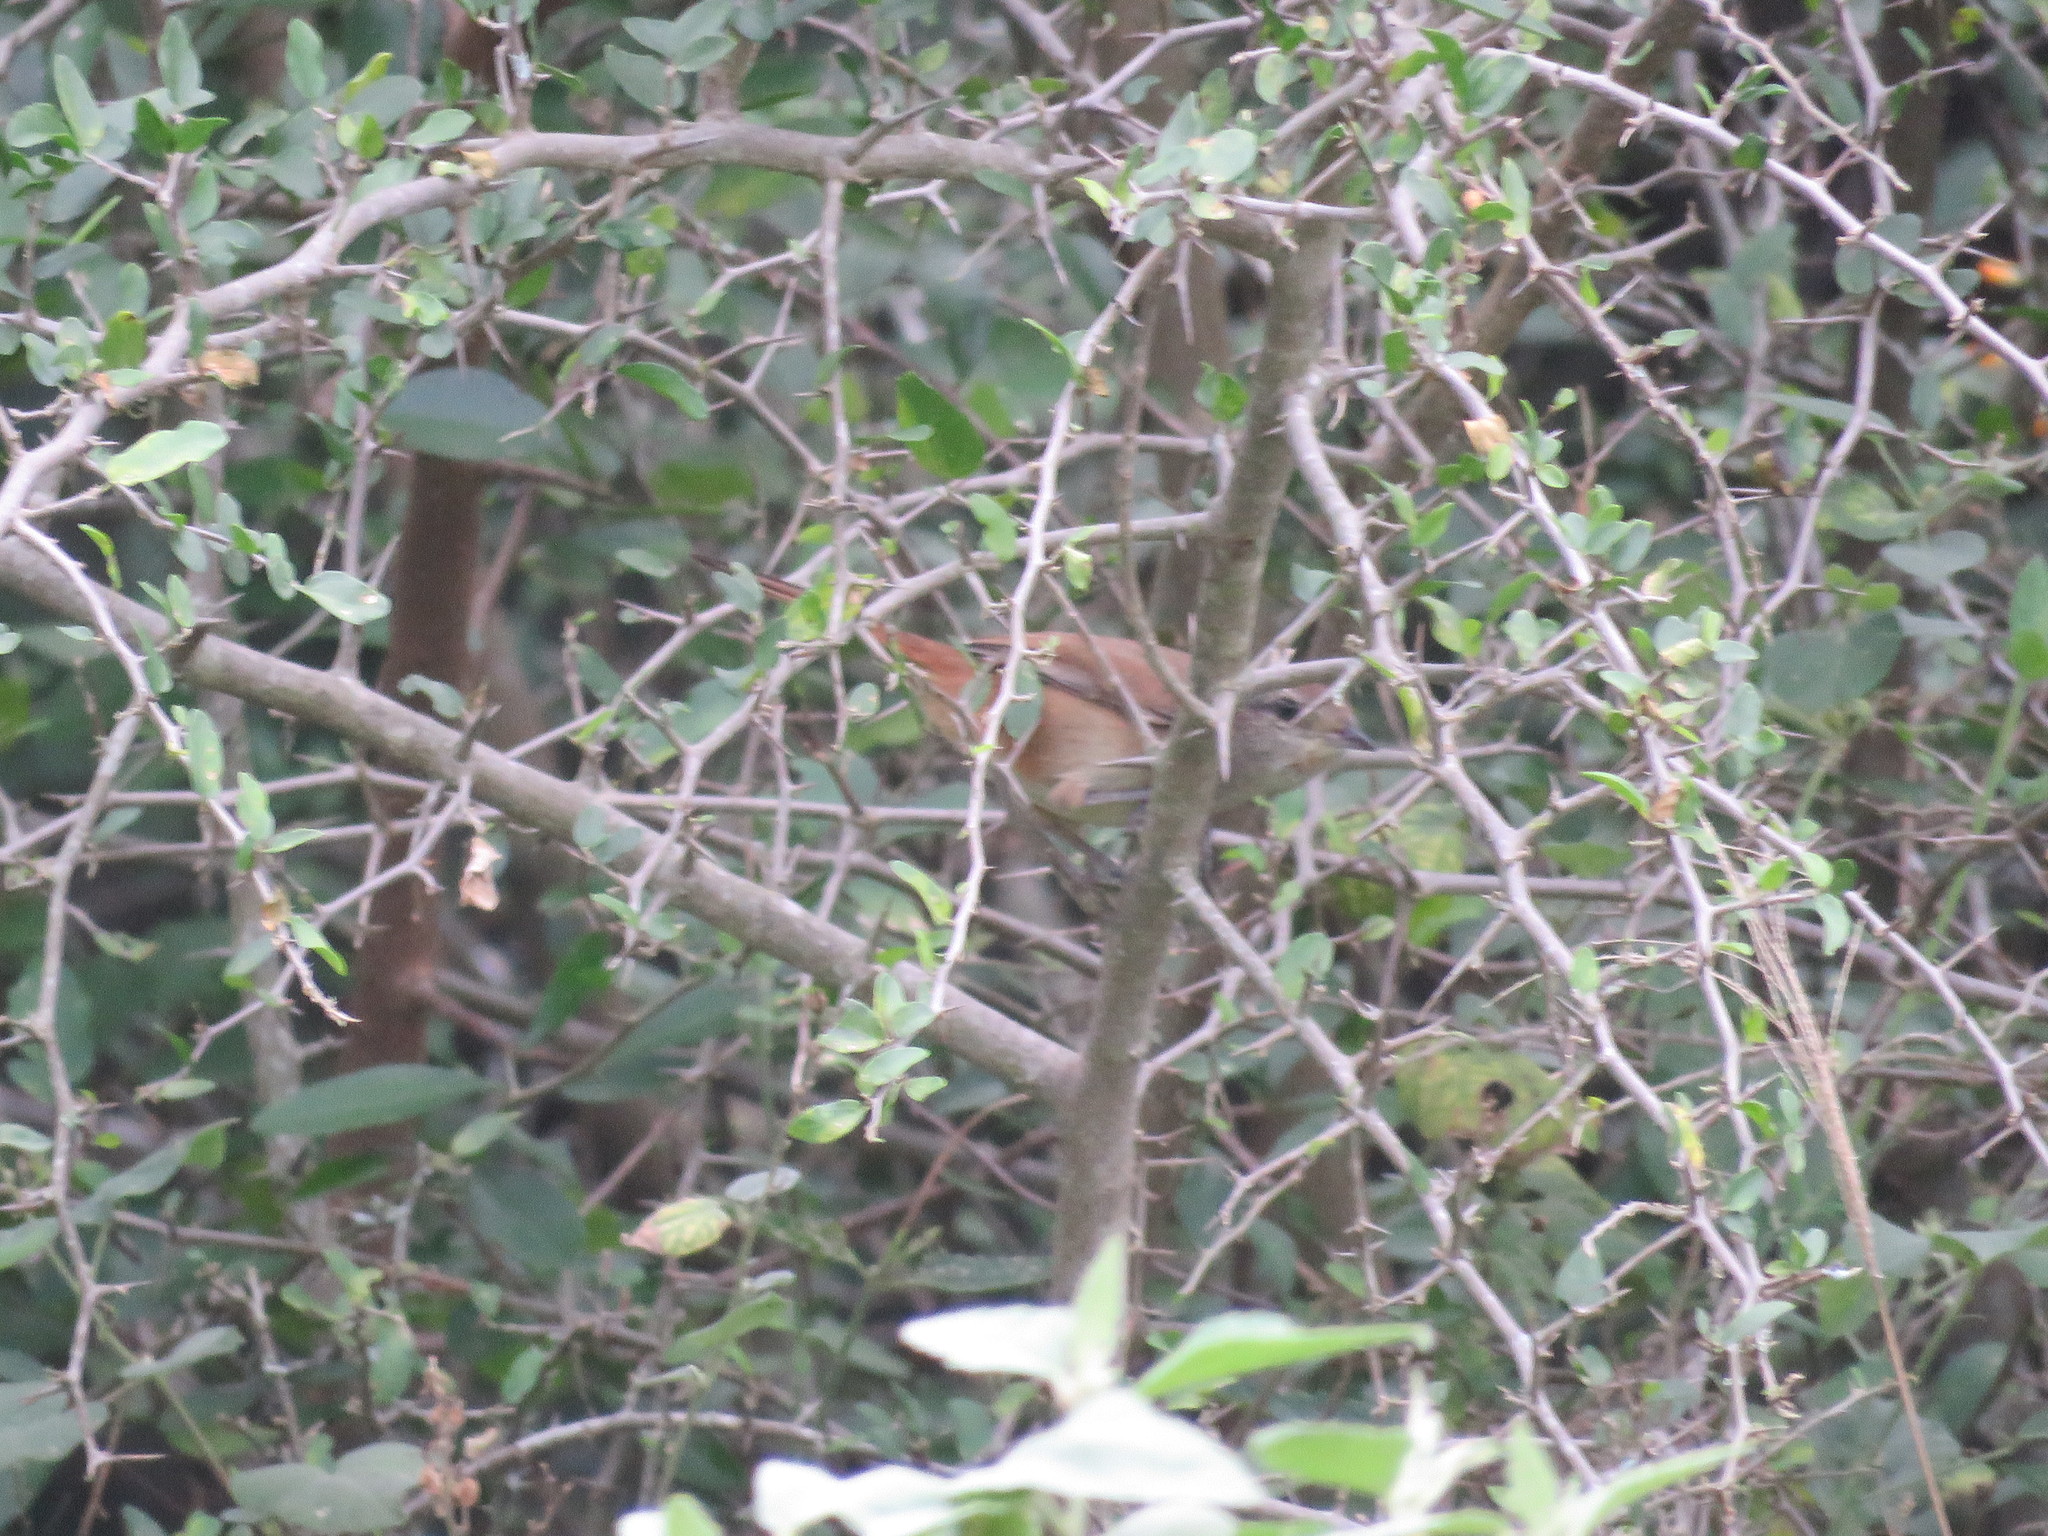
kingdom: Animalia
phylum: Chordata
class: Aves
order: Passeriformes
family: Furnariidae
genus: Phacellodomus
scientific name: Phacellodomus rufifrons
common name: Rufous-fronted thornbird
